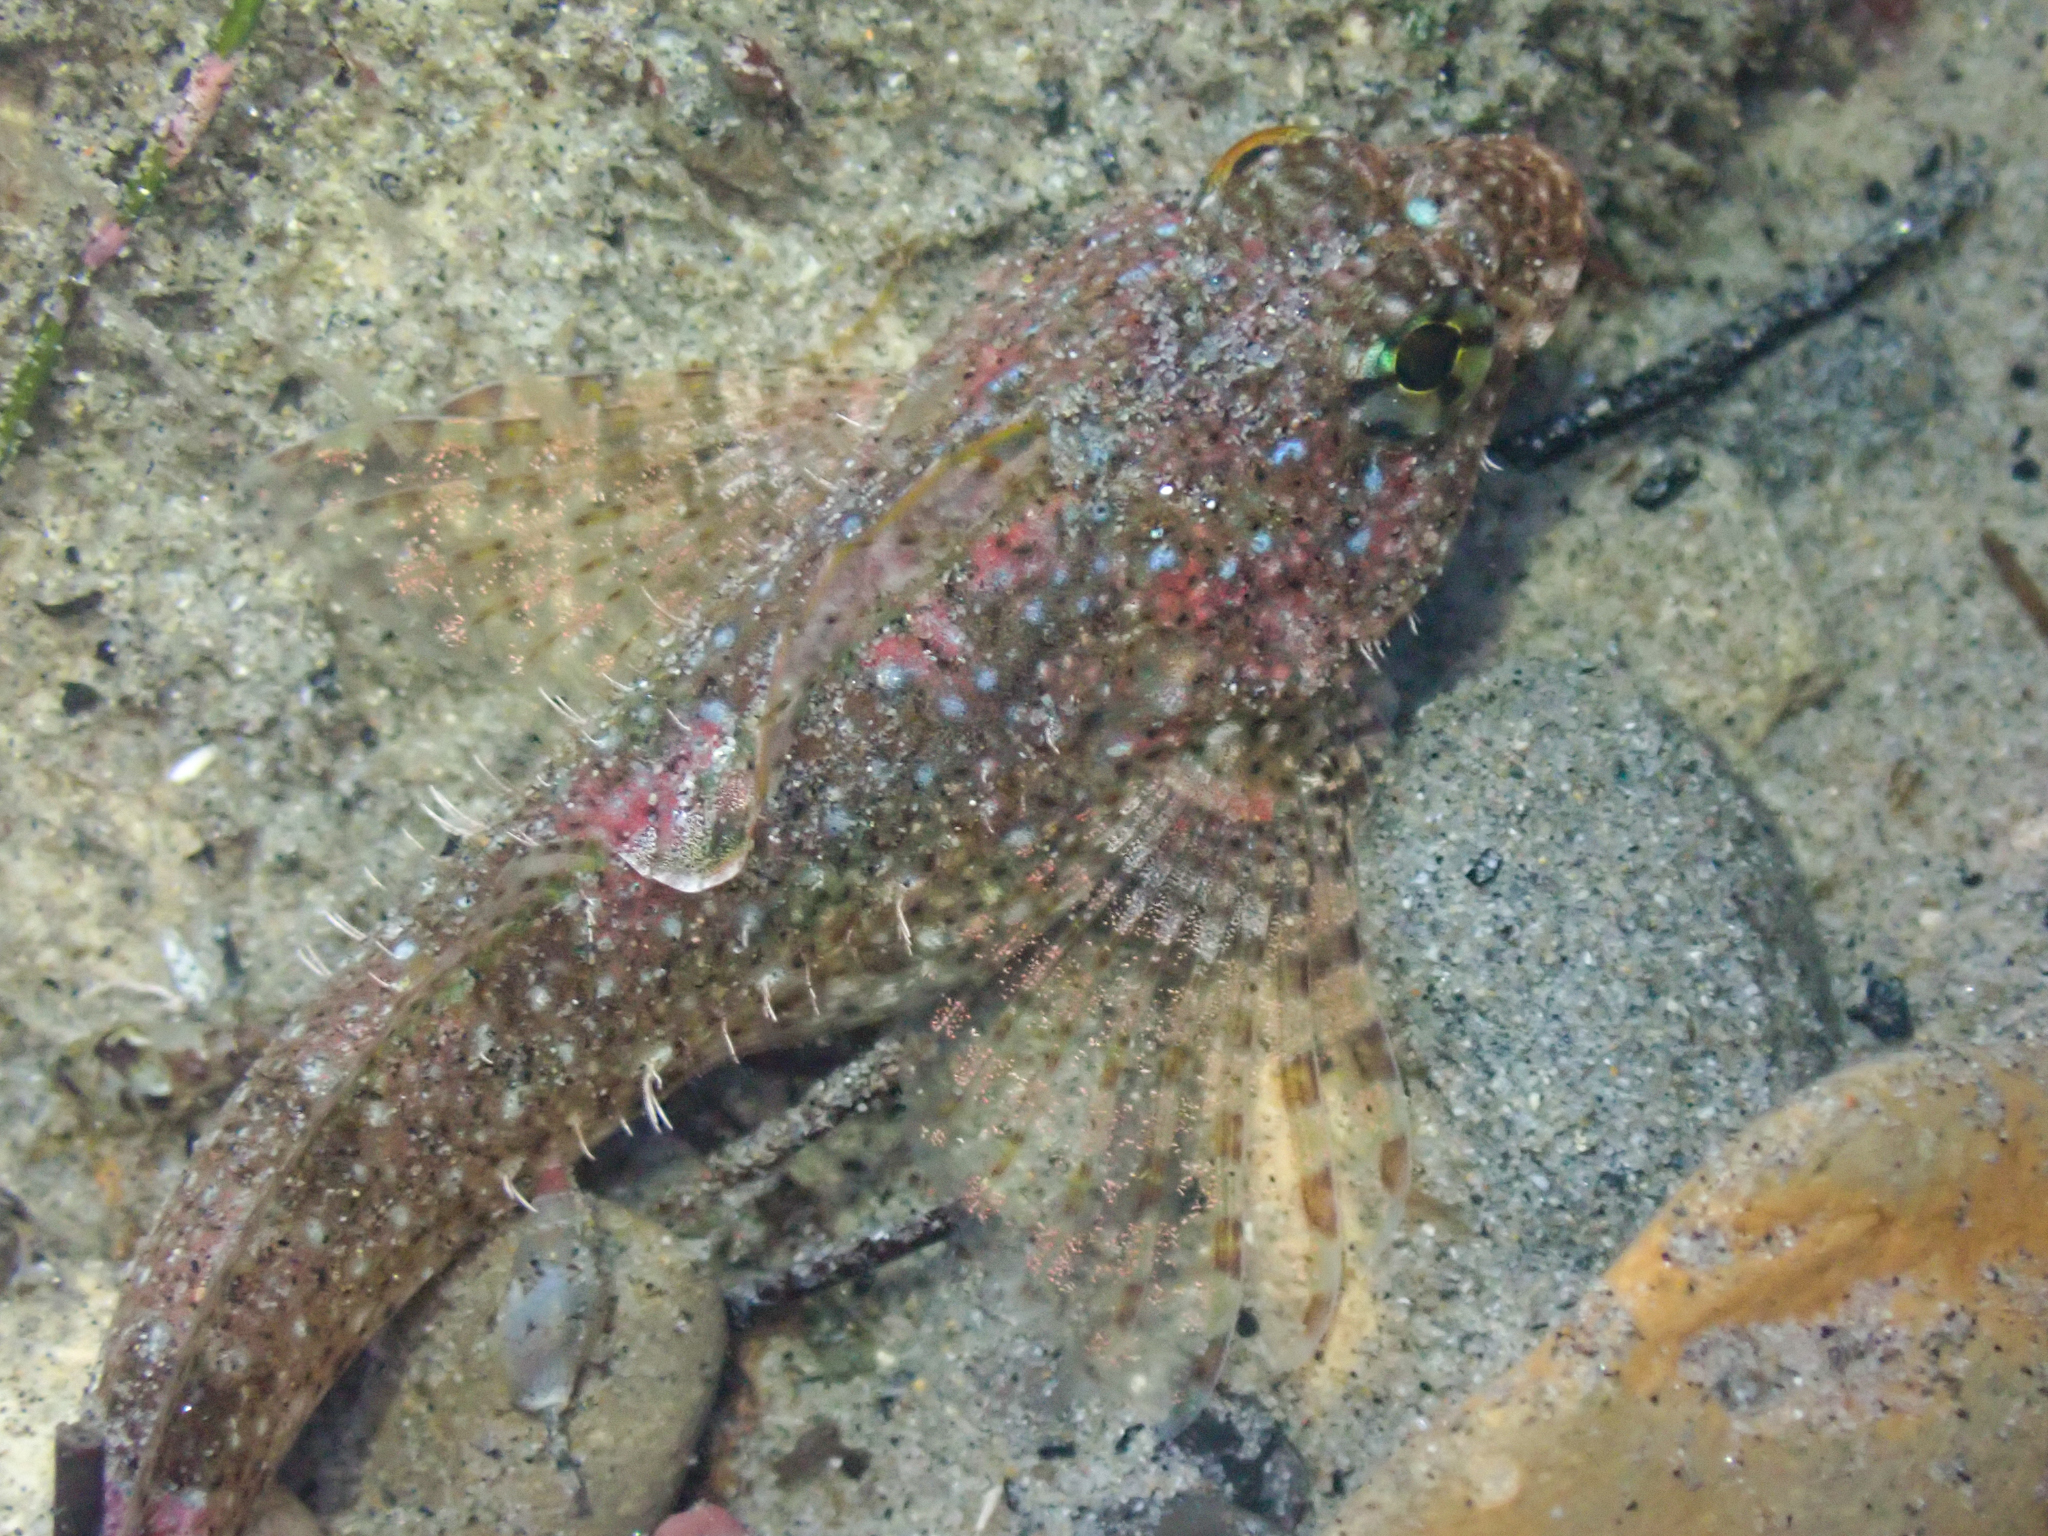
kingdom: Animalia
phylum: Chordata
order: Scorpaeniformes
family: Cottidae
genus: Clinocottus
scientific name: Clinocottus analis
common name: Woolly sculpin
